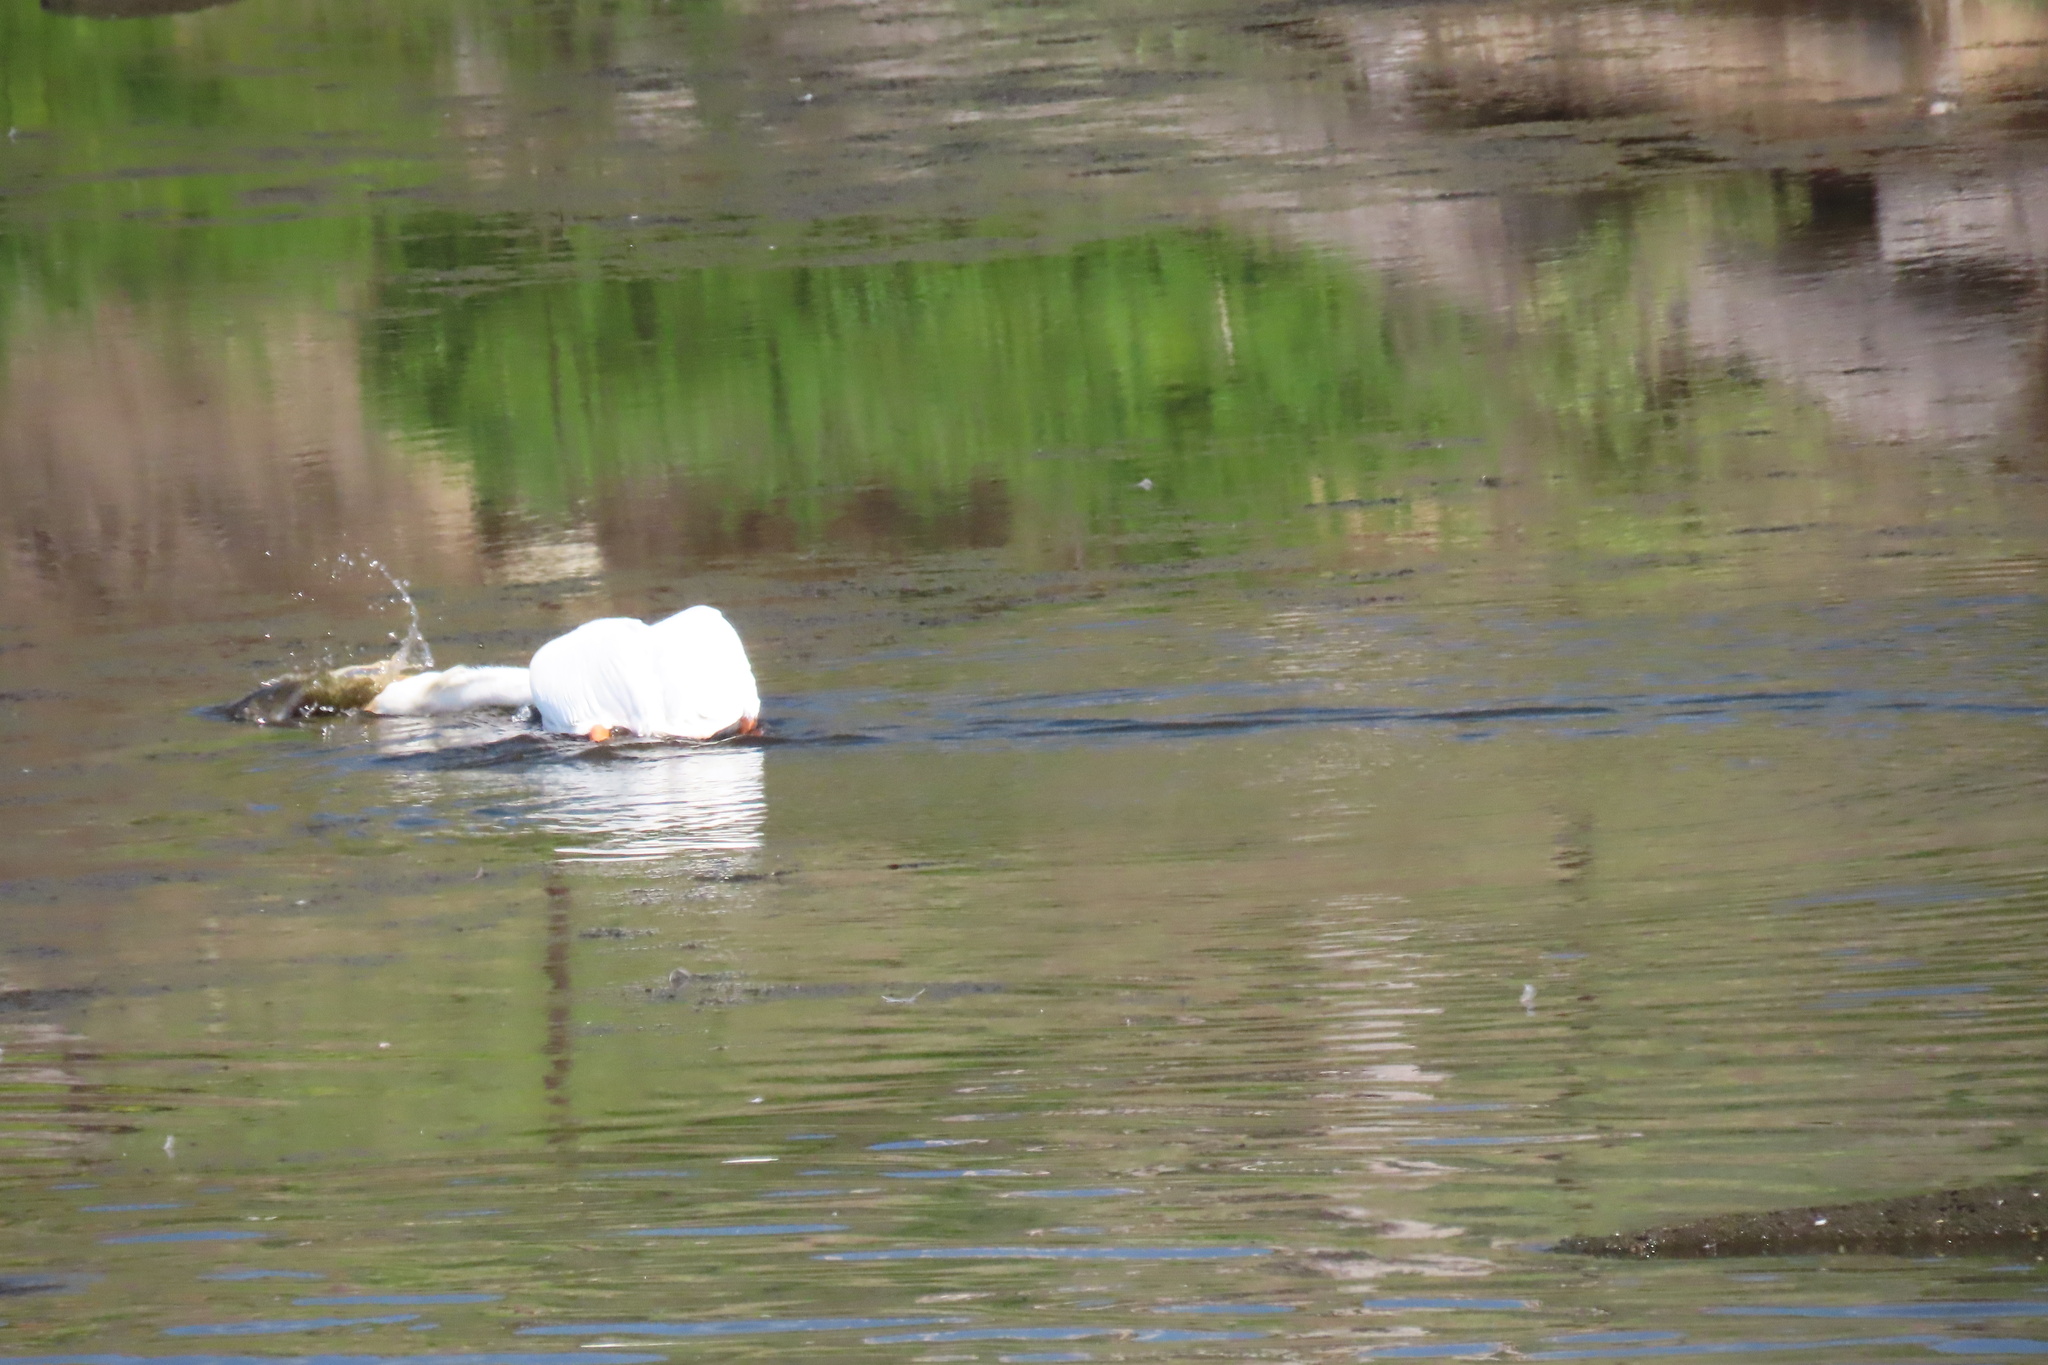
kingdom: Animalia
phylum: Chordata
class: Aves
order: Pelecaniformes
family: Pelecanidae
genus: Pelecanus
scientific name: Pelecanus erythrorhynchos
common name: American white pelican
